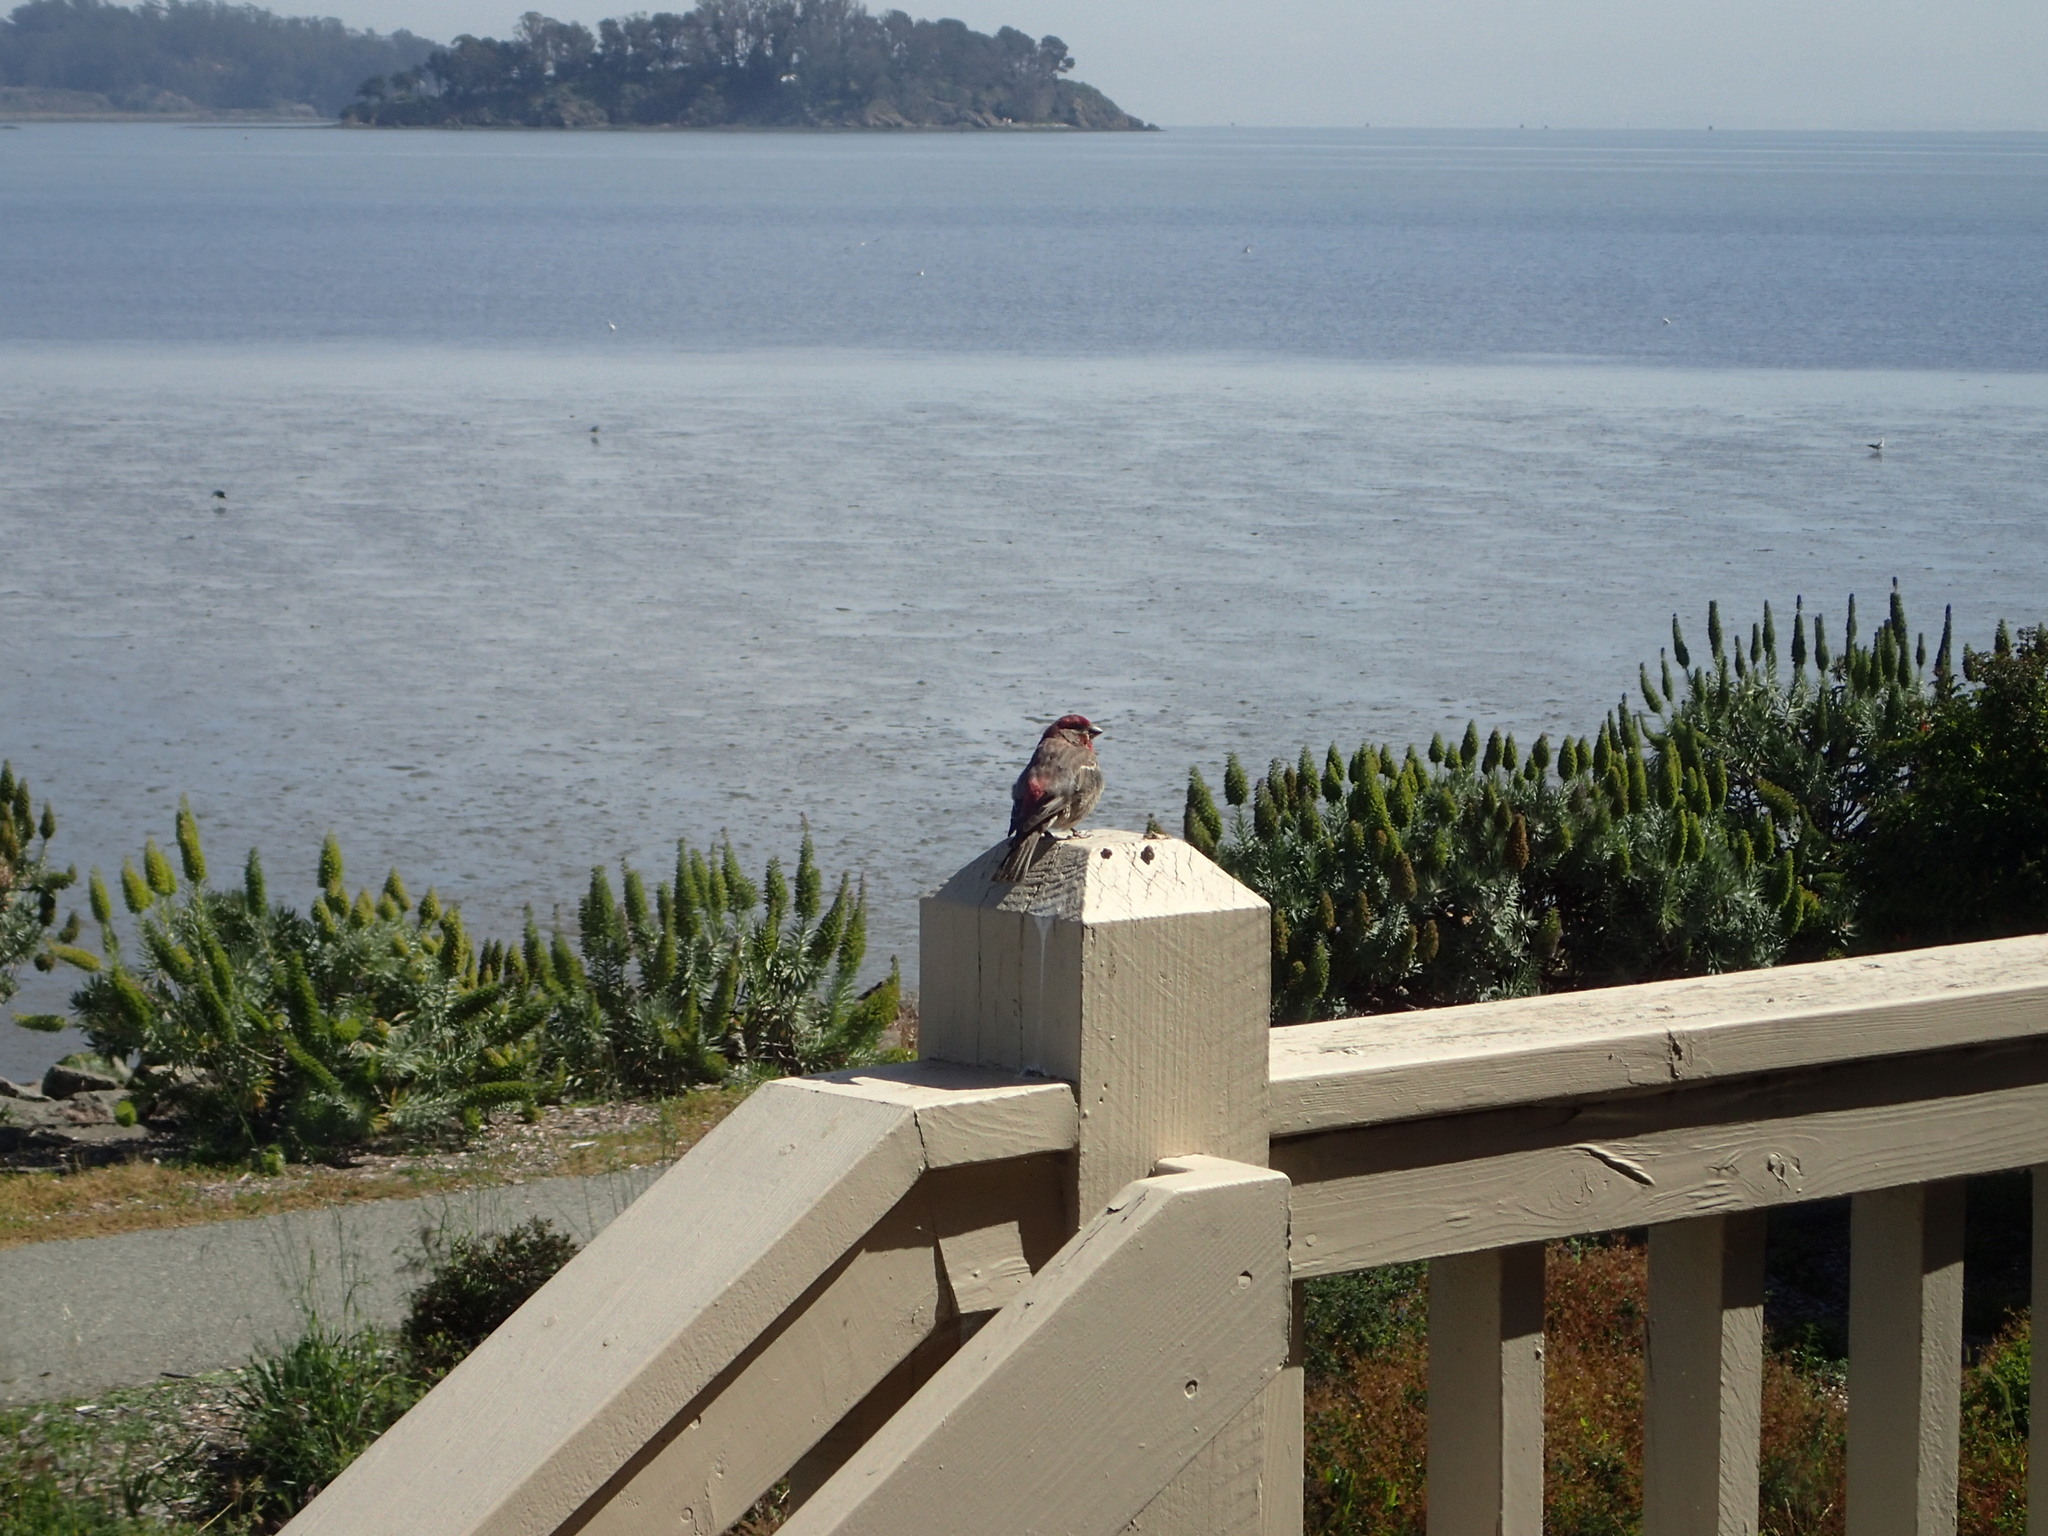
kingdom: Animalia
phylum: Chordata
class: Aves
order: Passeriformes
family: Fringillidae
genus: Haemorhous
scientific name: Haemorhous mexicanus
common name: House finch
